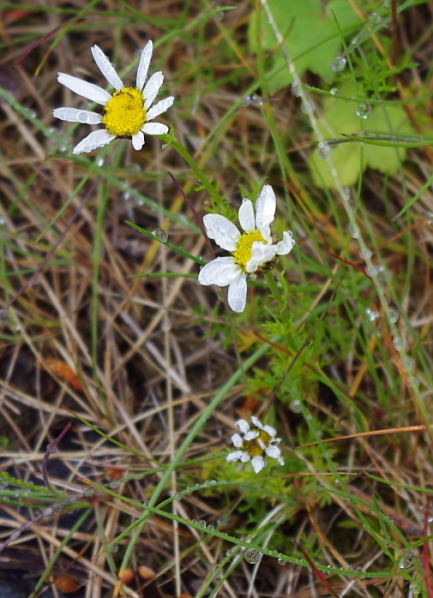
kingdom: Plantae
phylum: Tracheophyta
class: Magnoliopsida
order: Asterales
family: Asteraceae
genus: Tripleurospermum
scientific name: Tripleurospermum maritimum
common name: Sea mayweed
